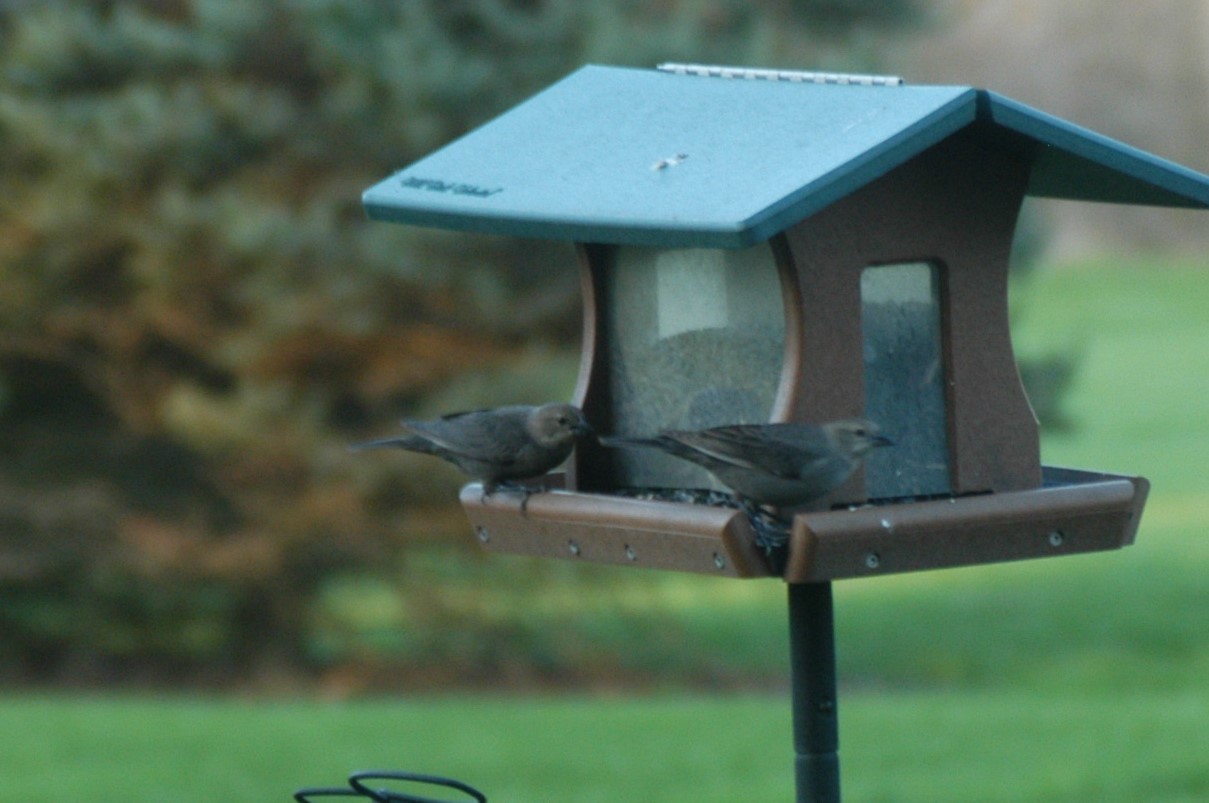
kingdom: Animalia
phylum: Chordata
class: Aves
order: Passeriformes
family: Icteridae
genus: Molothrus
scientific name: Molothrus ater
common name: Brown-headed cowbird
